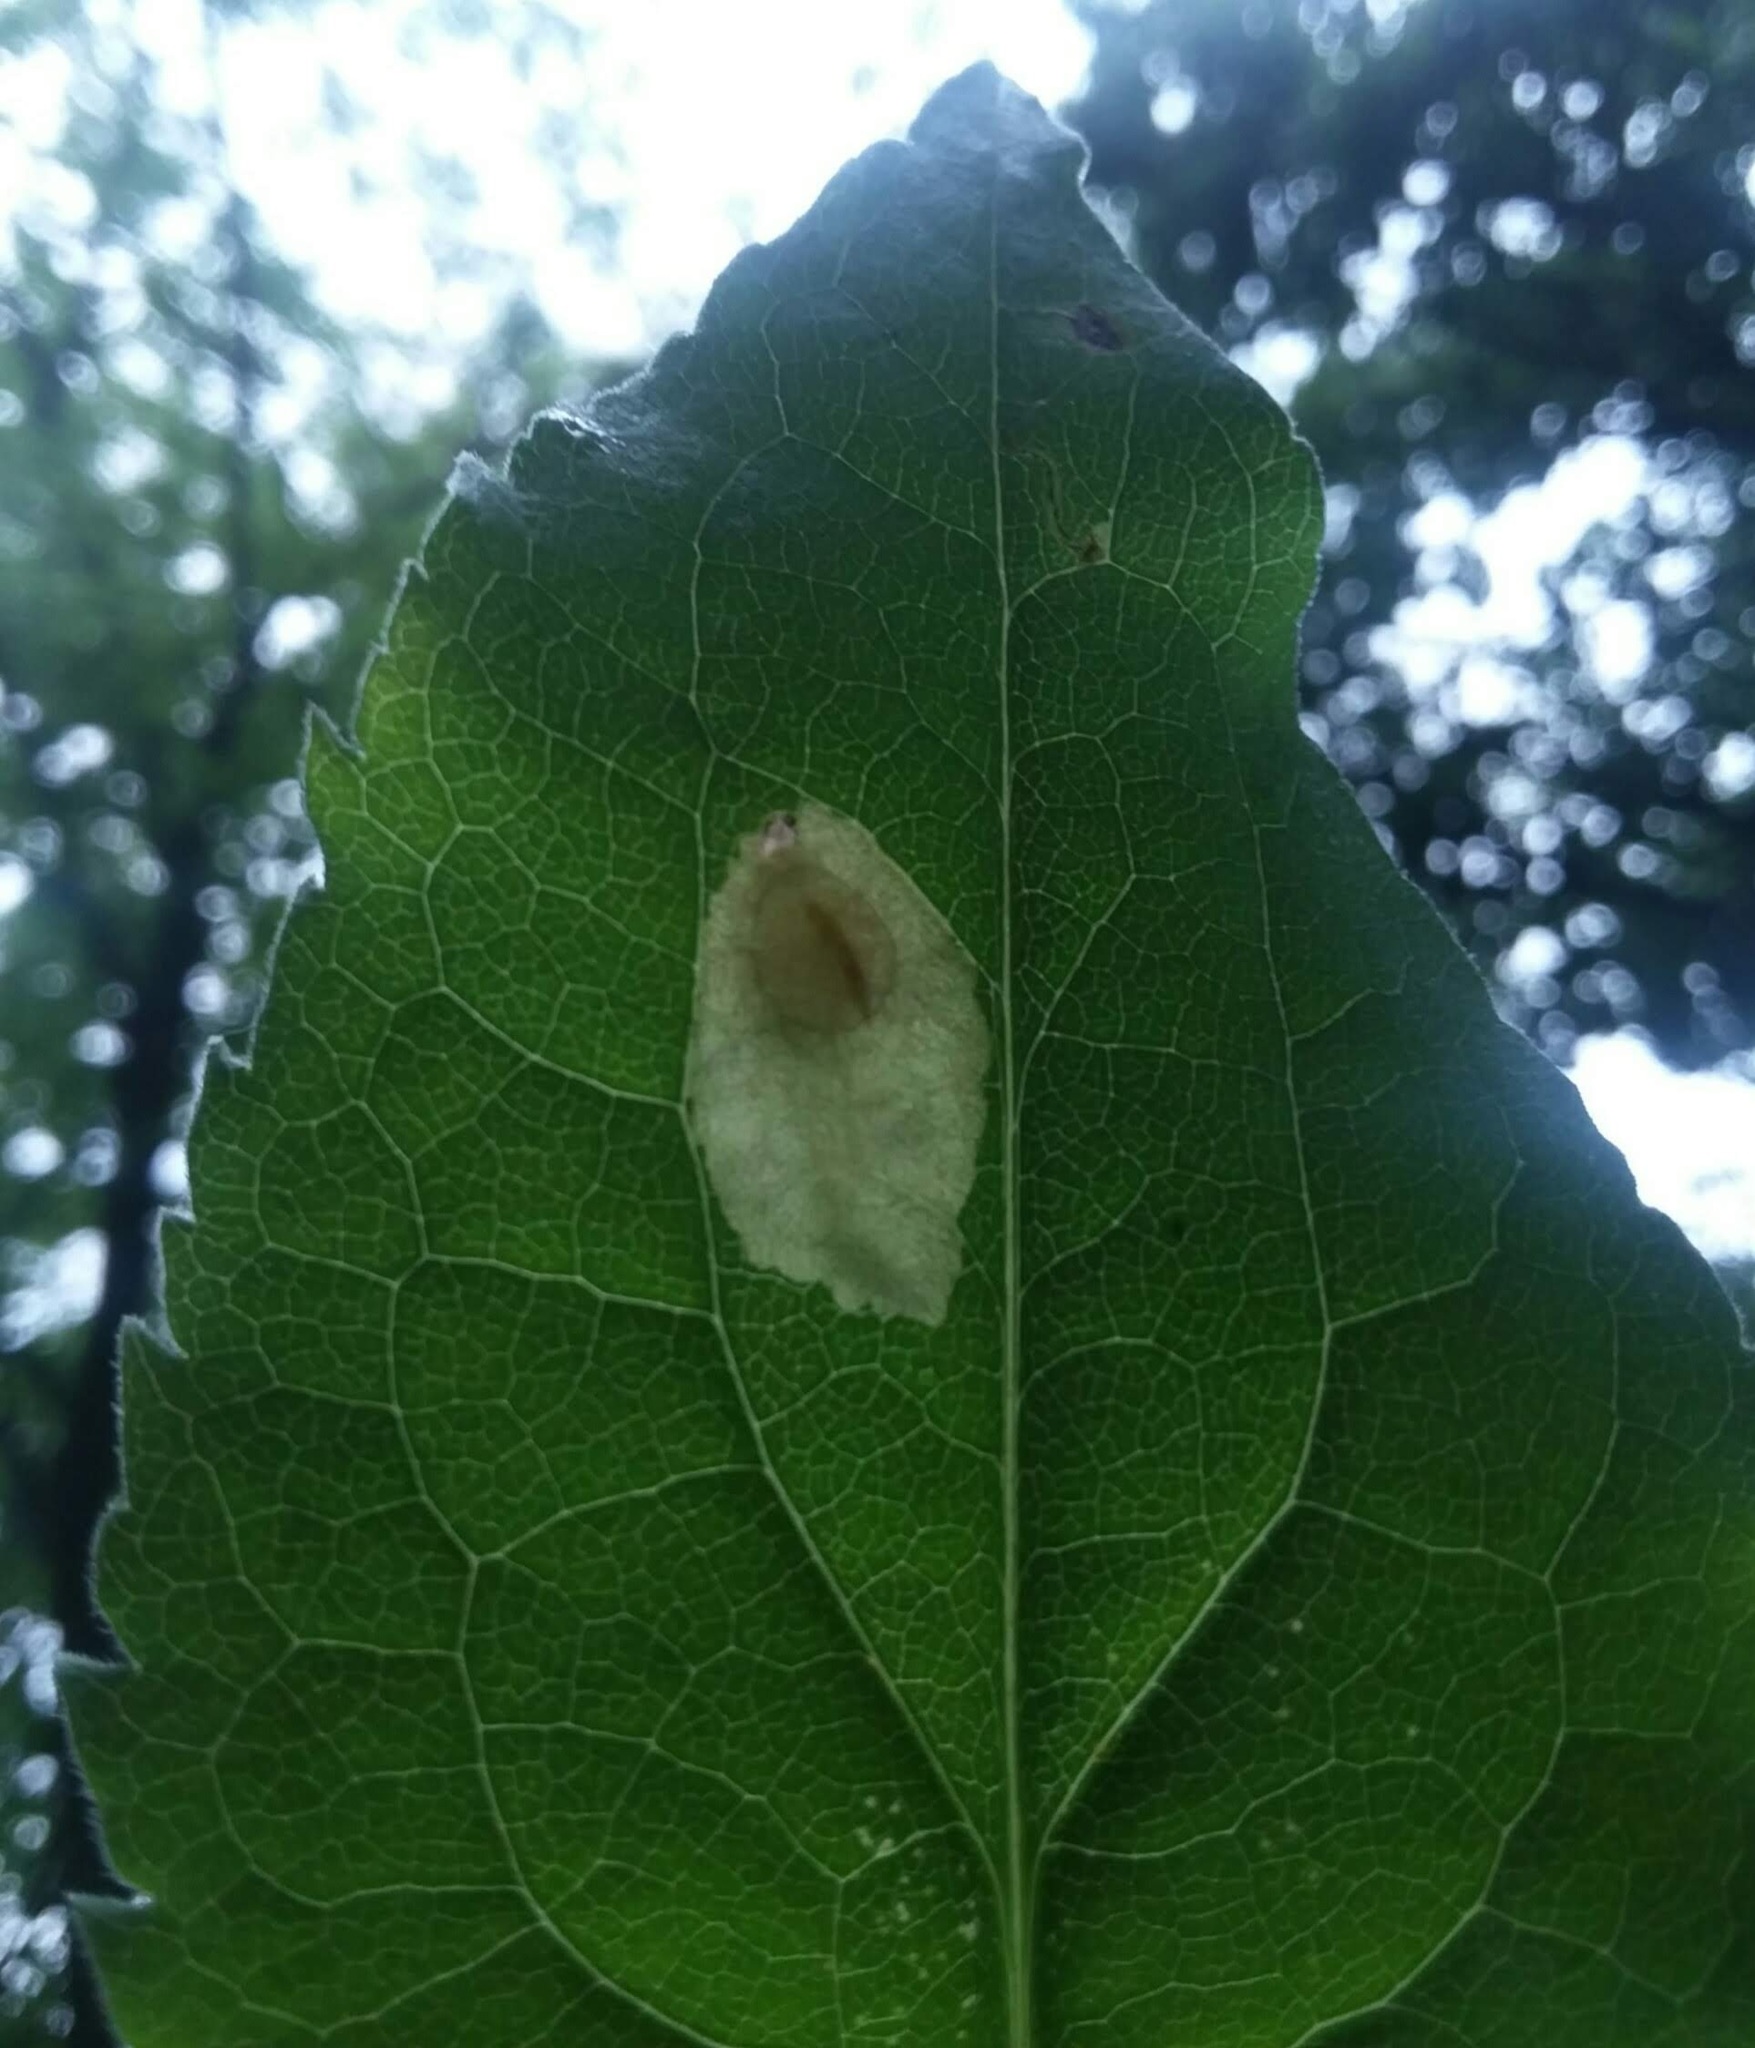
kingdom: Animalia
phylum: Arthropoda
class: Insecta
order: Lepidoptera
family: Tischeriidae
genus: Astrotischeria
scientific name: Astrotischeria astericola
